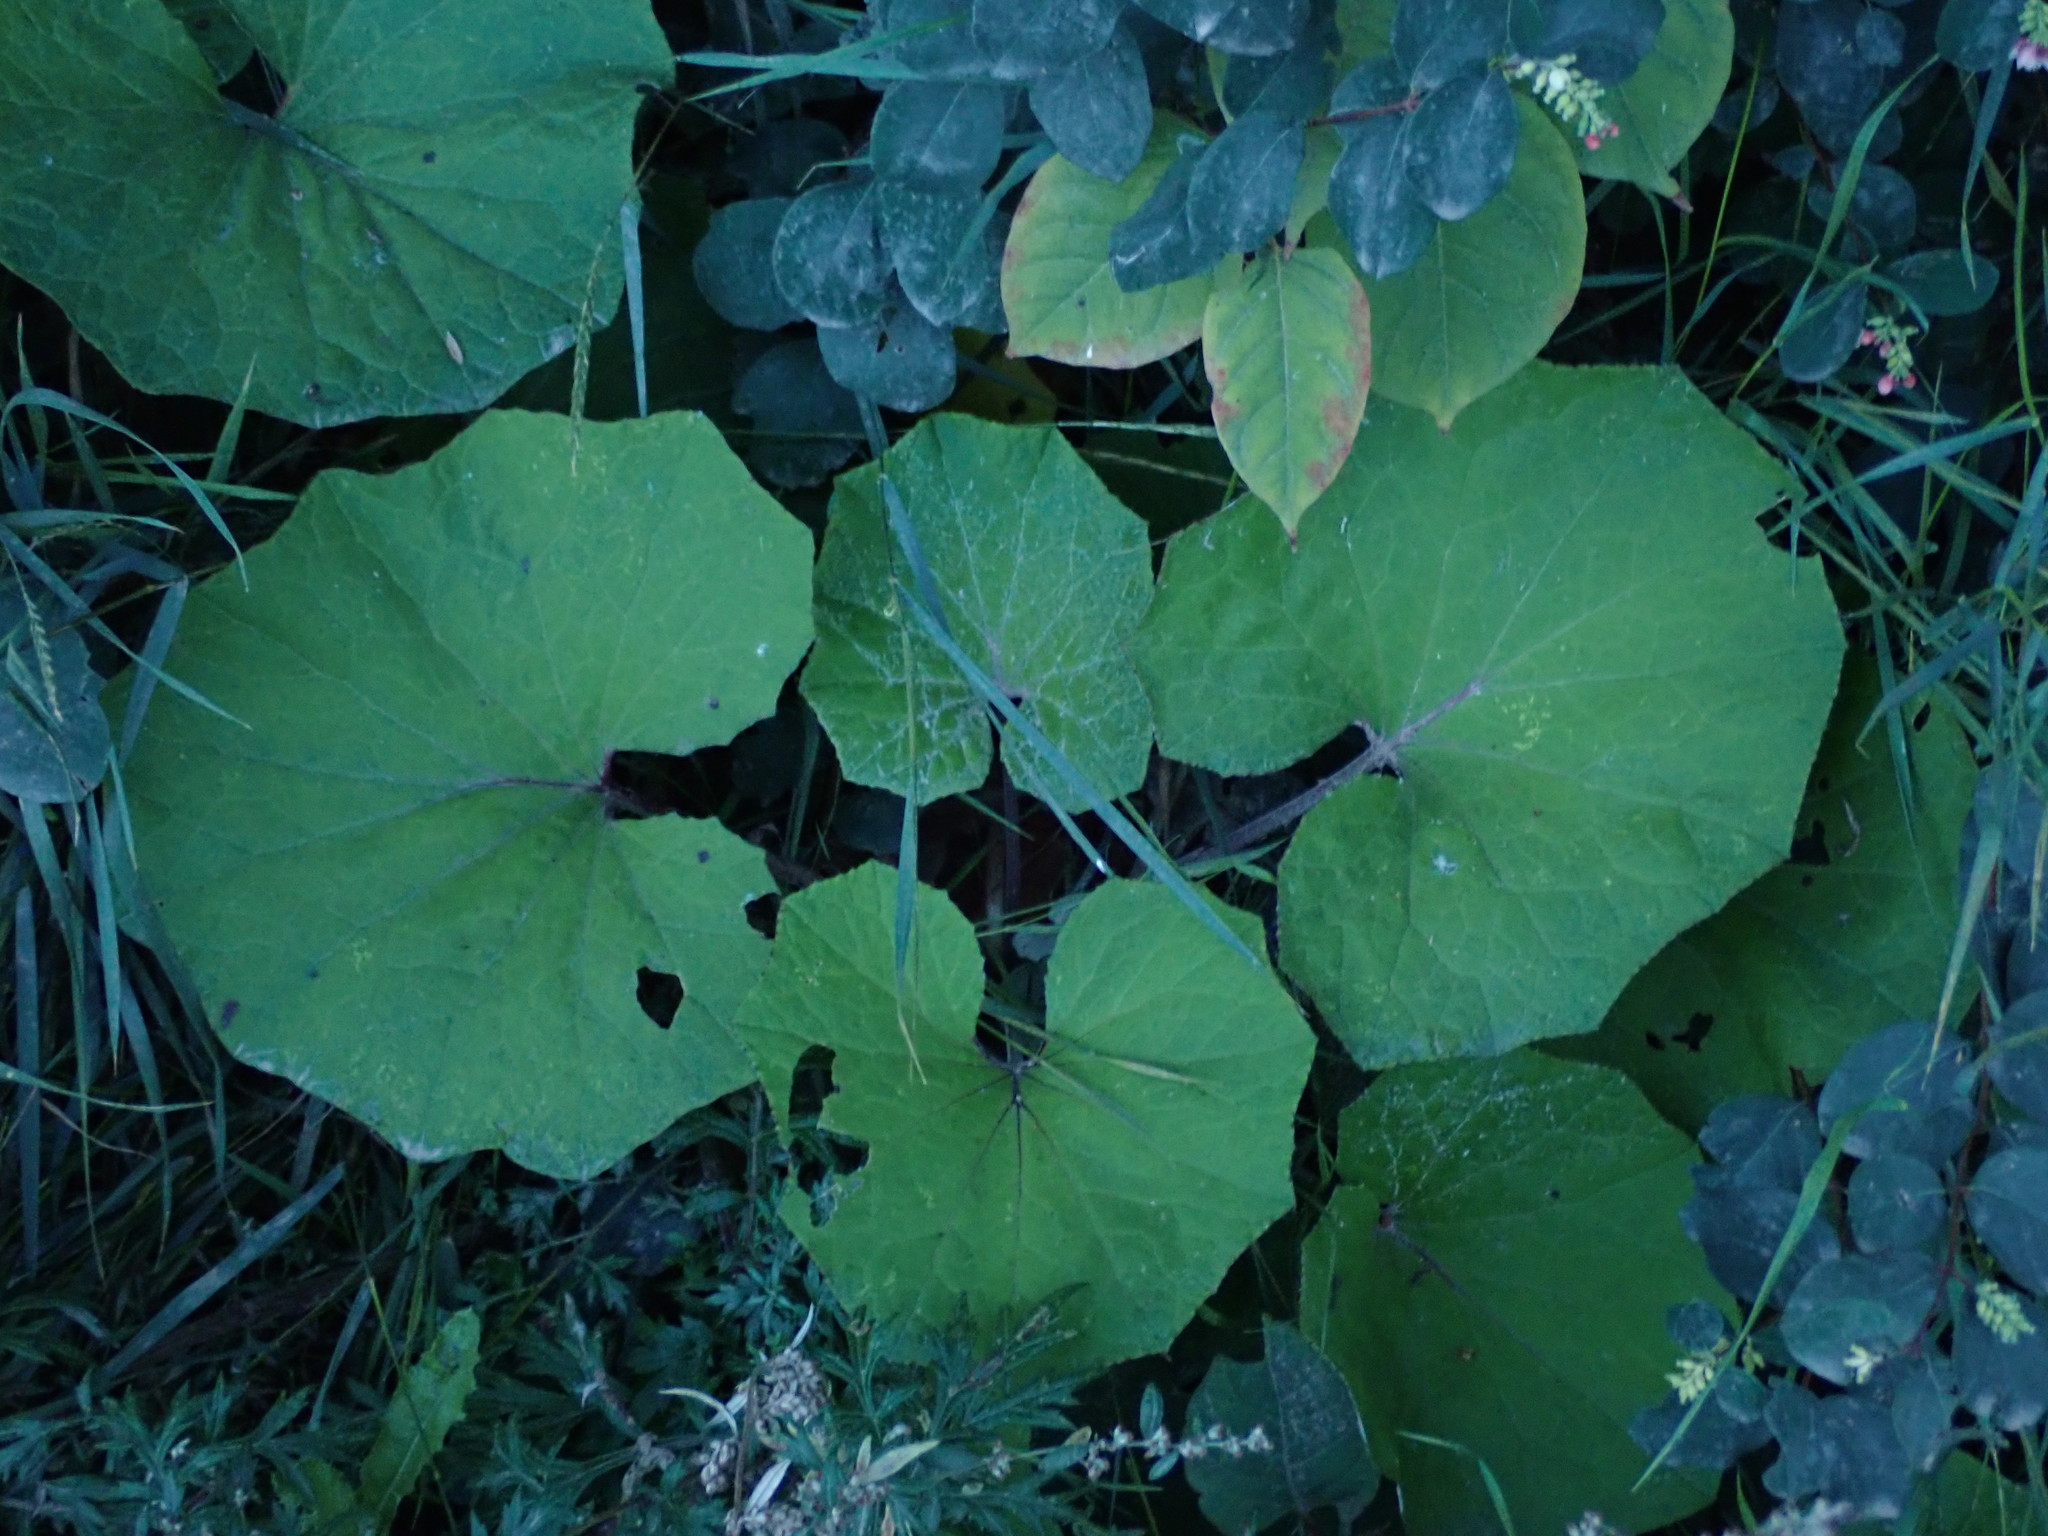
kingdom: Plantae
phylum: Tracheophyta
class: Magnoliopsida
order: Asterales
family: Asteraceae
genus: Tussilago
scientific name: Tussilago farfara
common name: Coltsfoot
